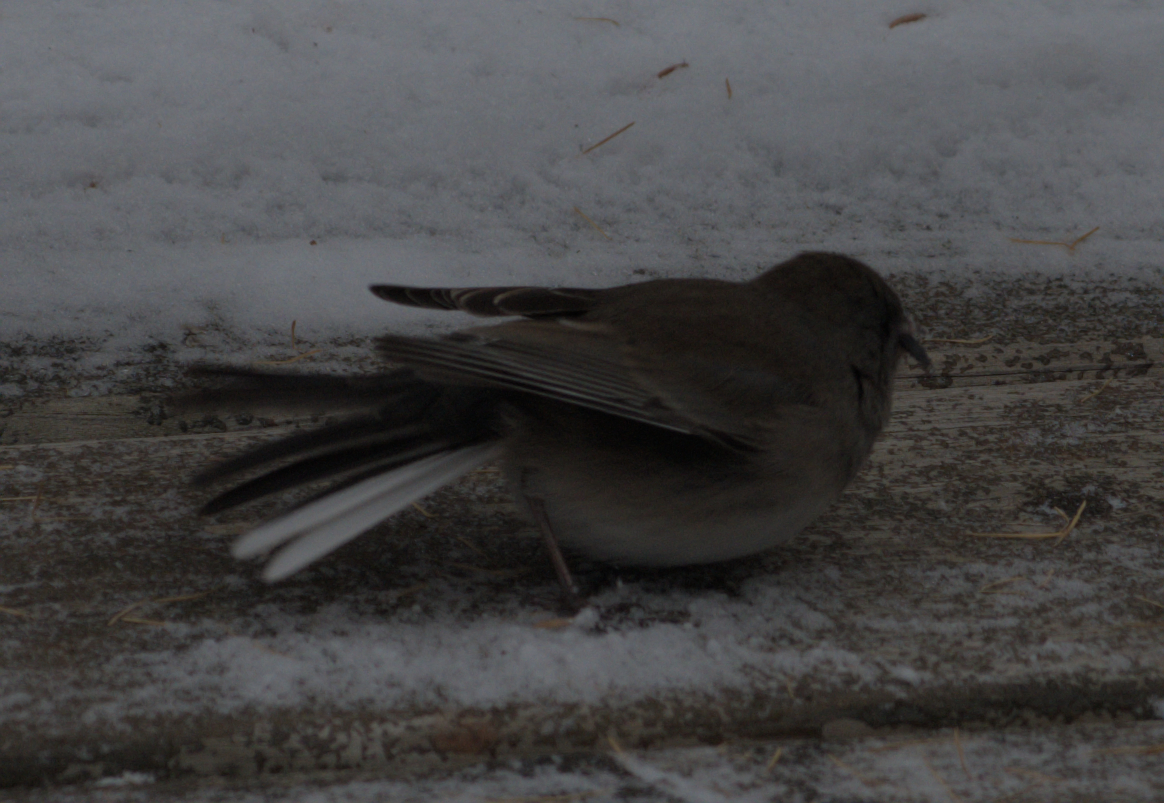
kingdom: Animalia
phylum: Chordata
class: Aves
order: Passeriformes
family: Passerellidae
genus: Junco
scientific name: Junco hyemalis
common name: Dark-eyed junco
